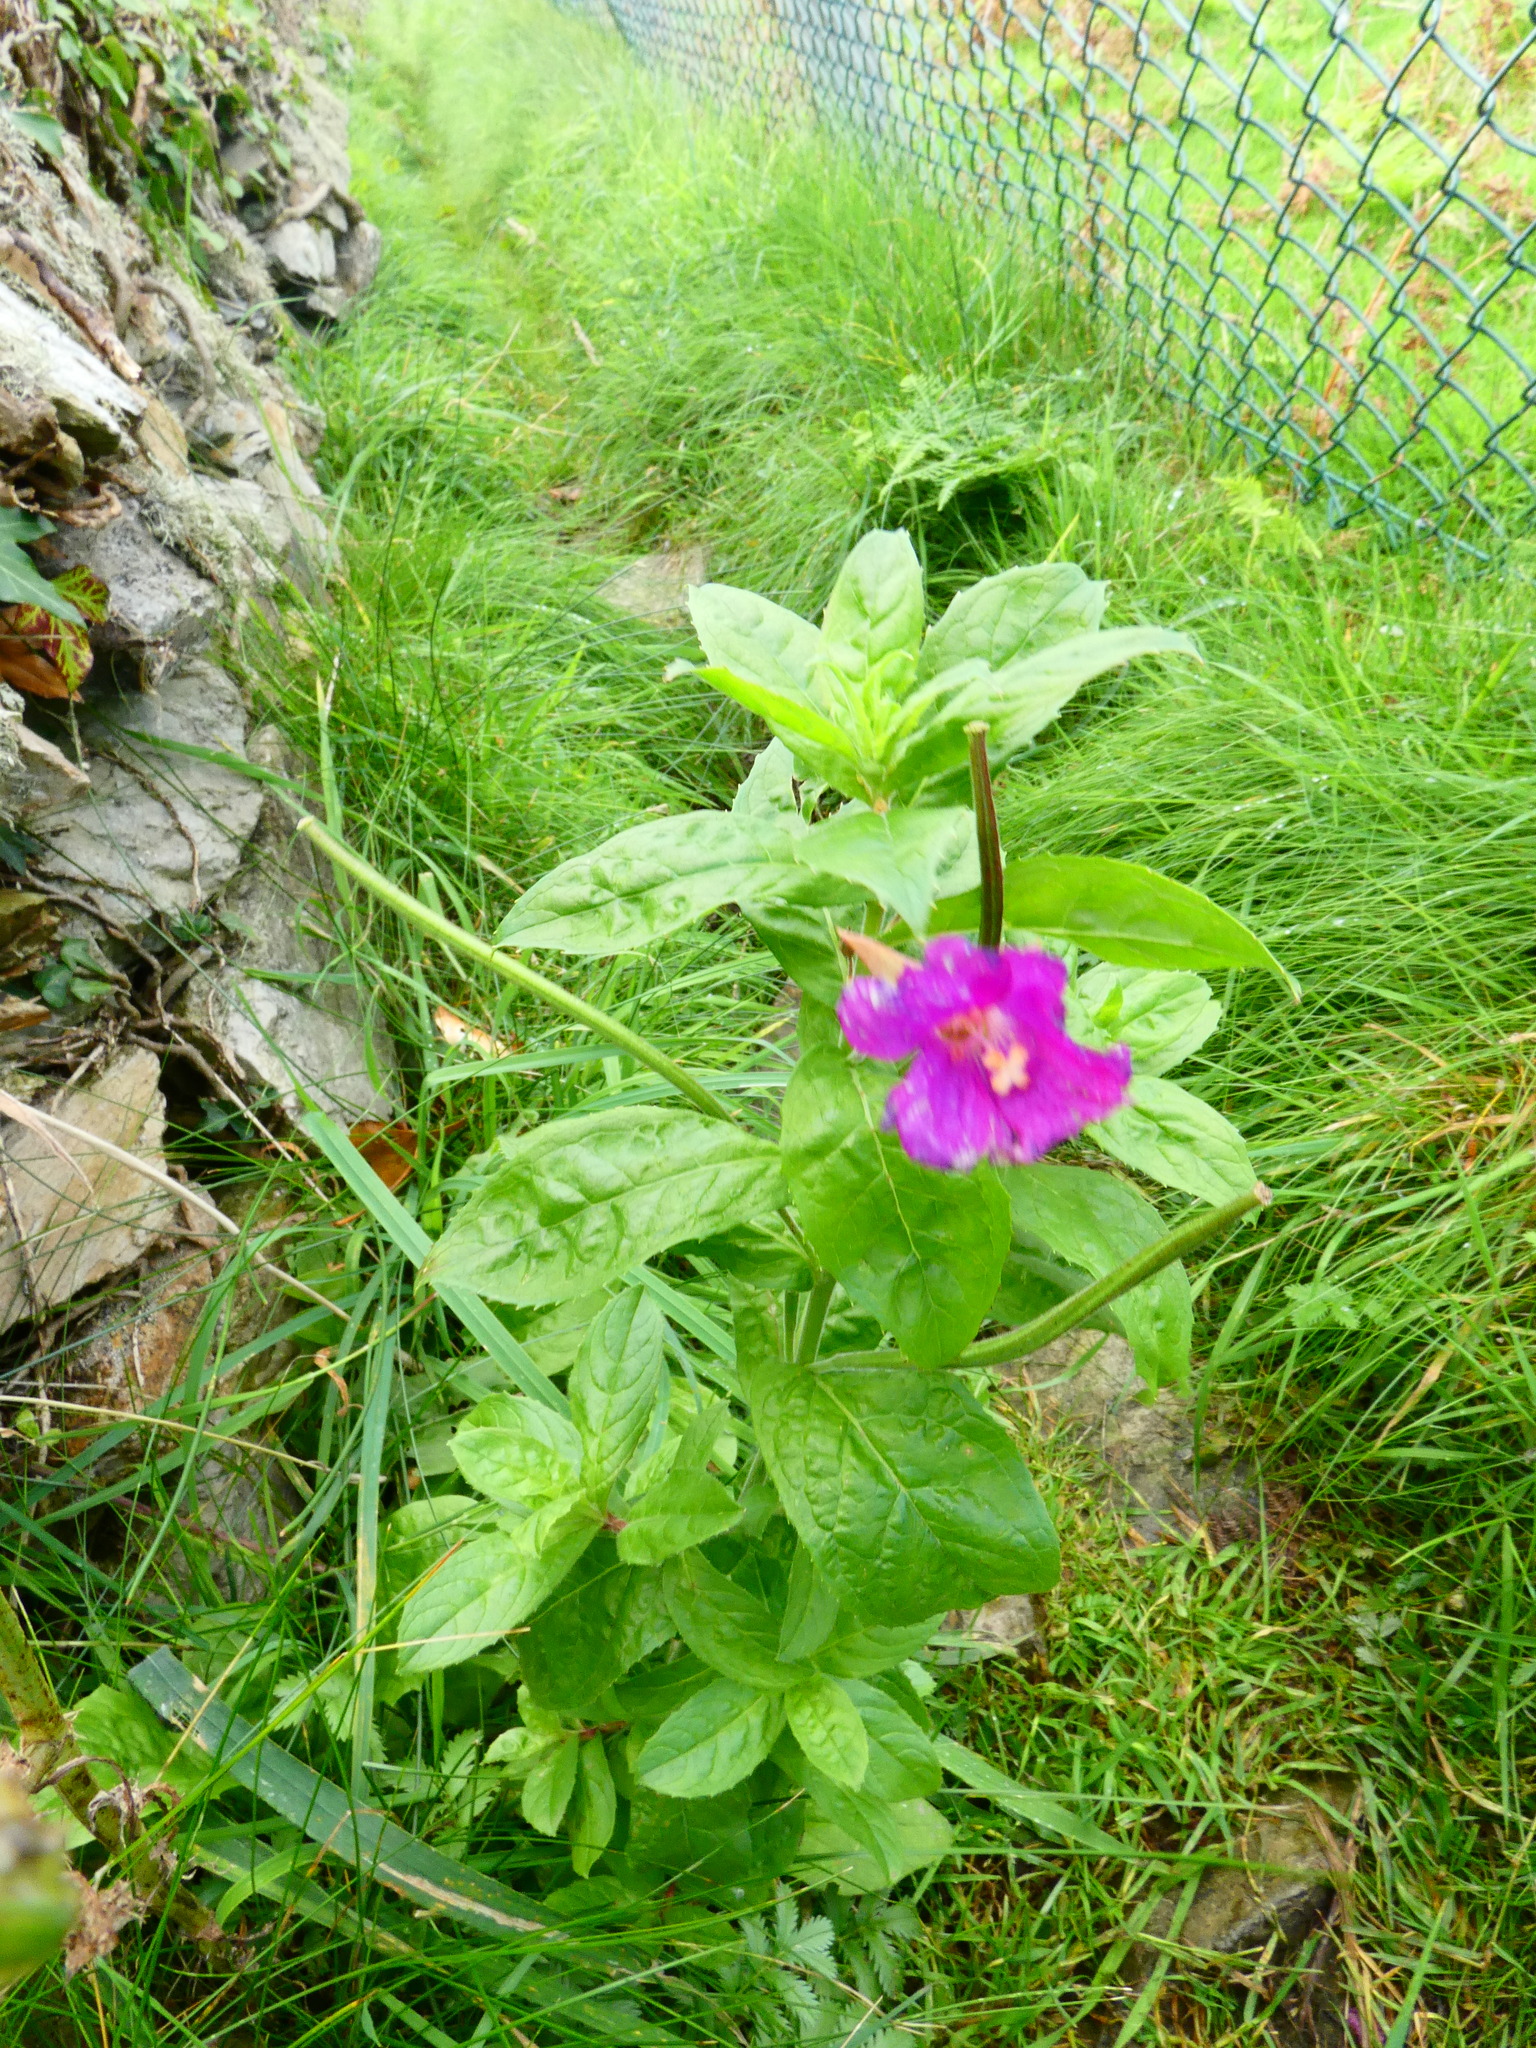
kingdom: Plantae
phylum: Tracheophyta
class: Magnoliopsida
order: Myrtales
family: Onagraceae
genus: Epilobium
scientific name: Epilobium hirsutum
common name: Great willowherb
